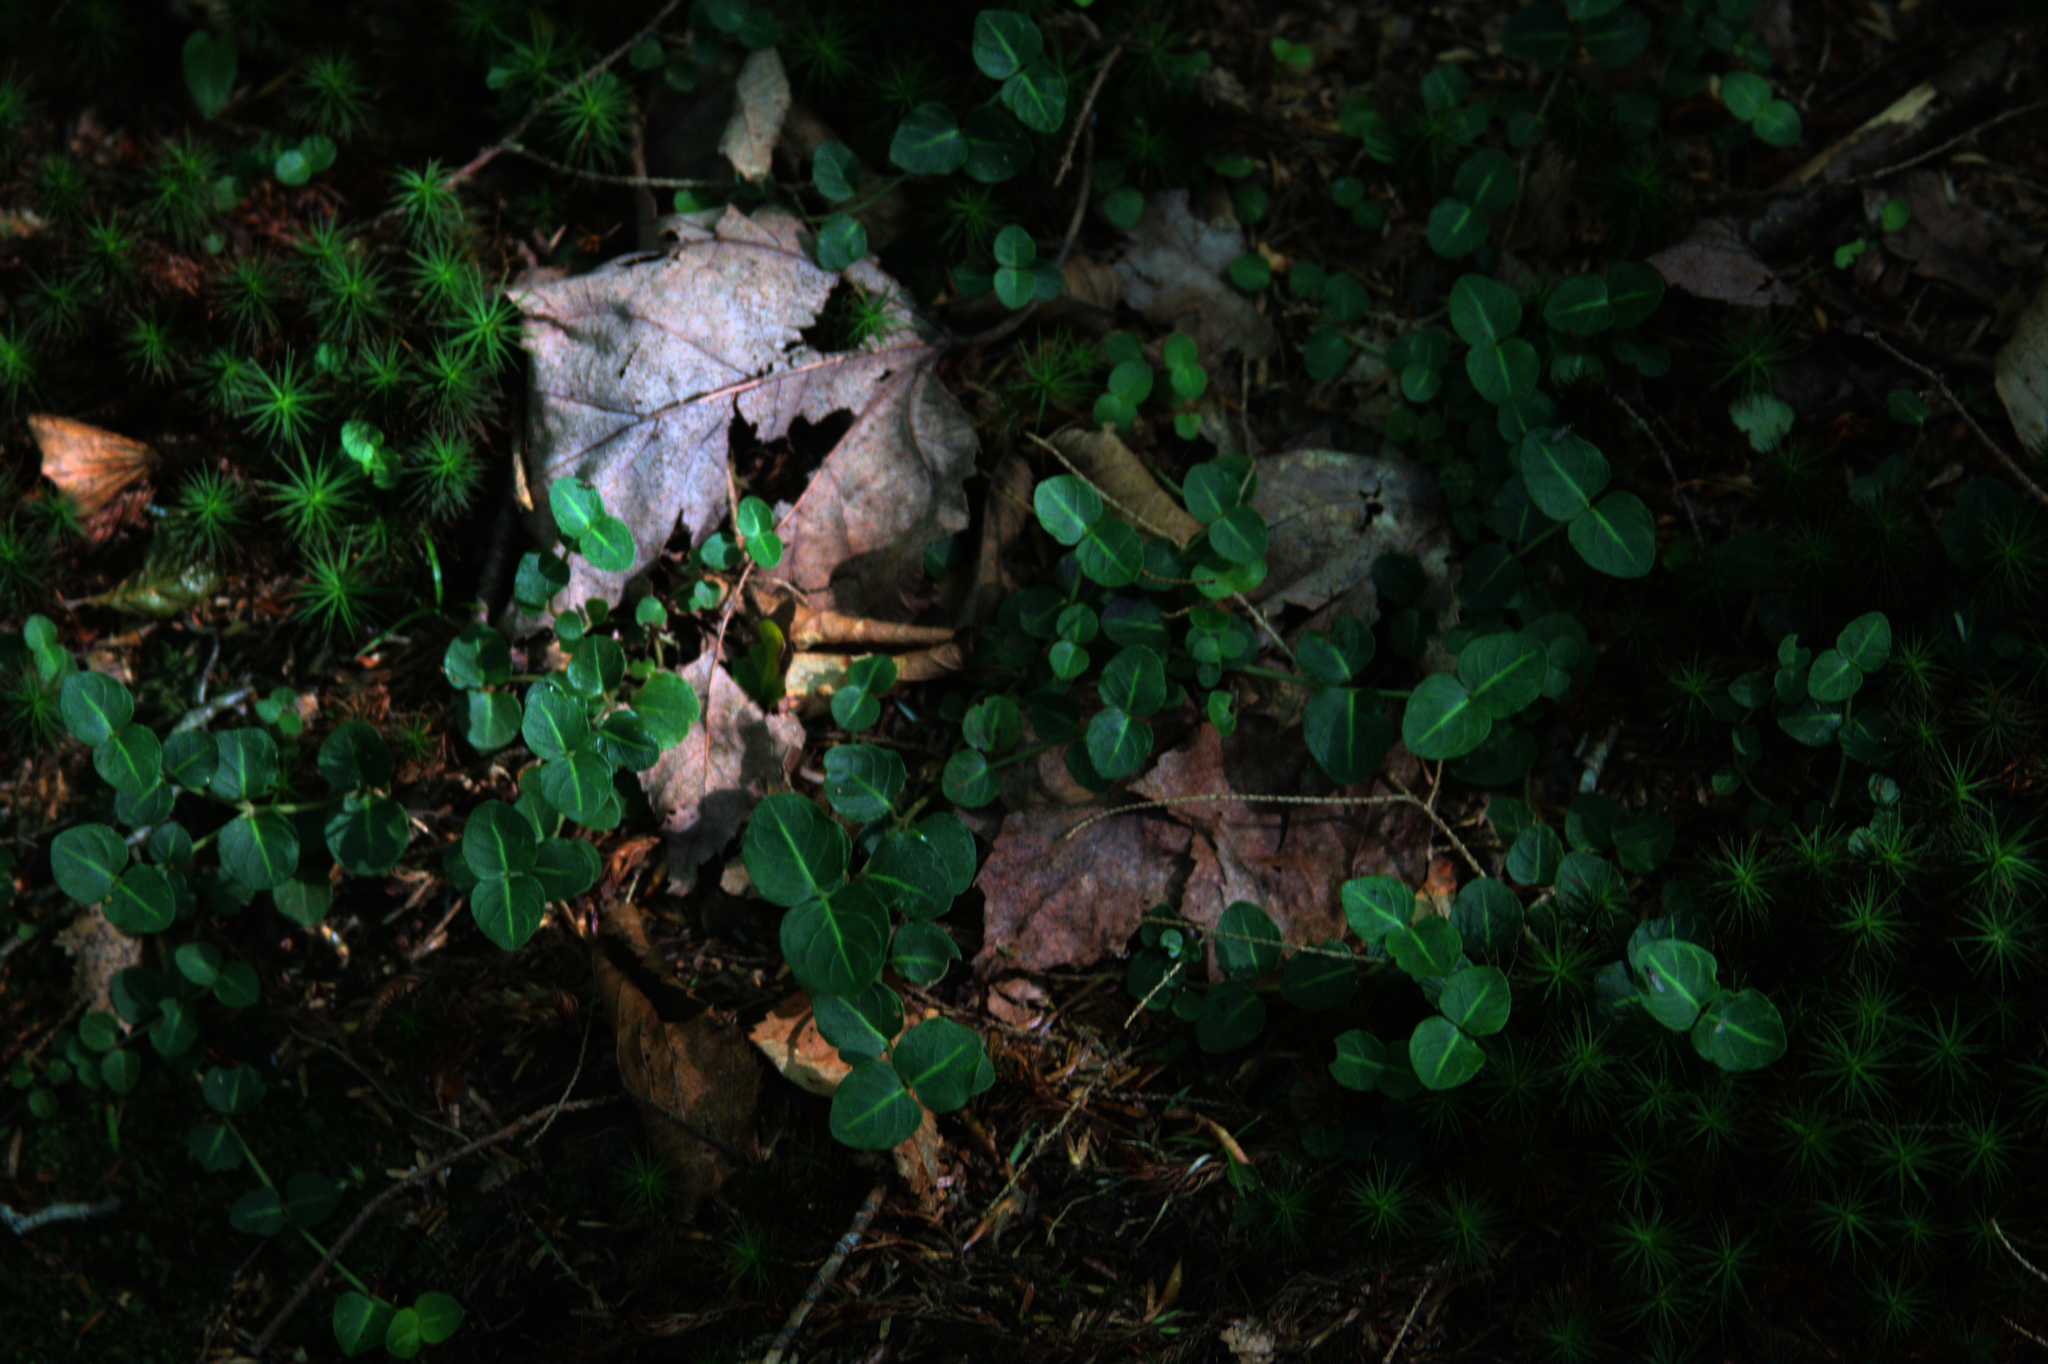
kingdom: Plantae
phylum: Tracheophyta
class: Magnoliopsida
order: Gentianales
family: Rubiaceae
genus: Mitchella
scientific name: Mitchella repens
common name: Partridge-berry
